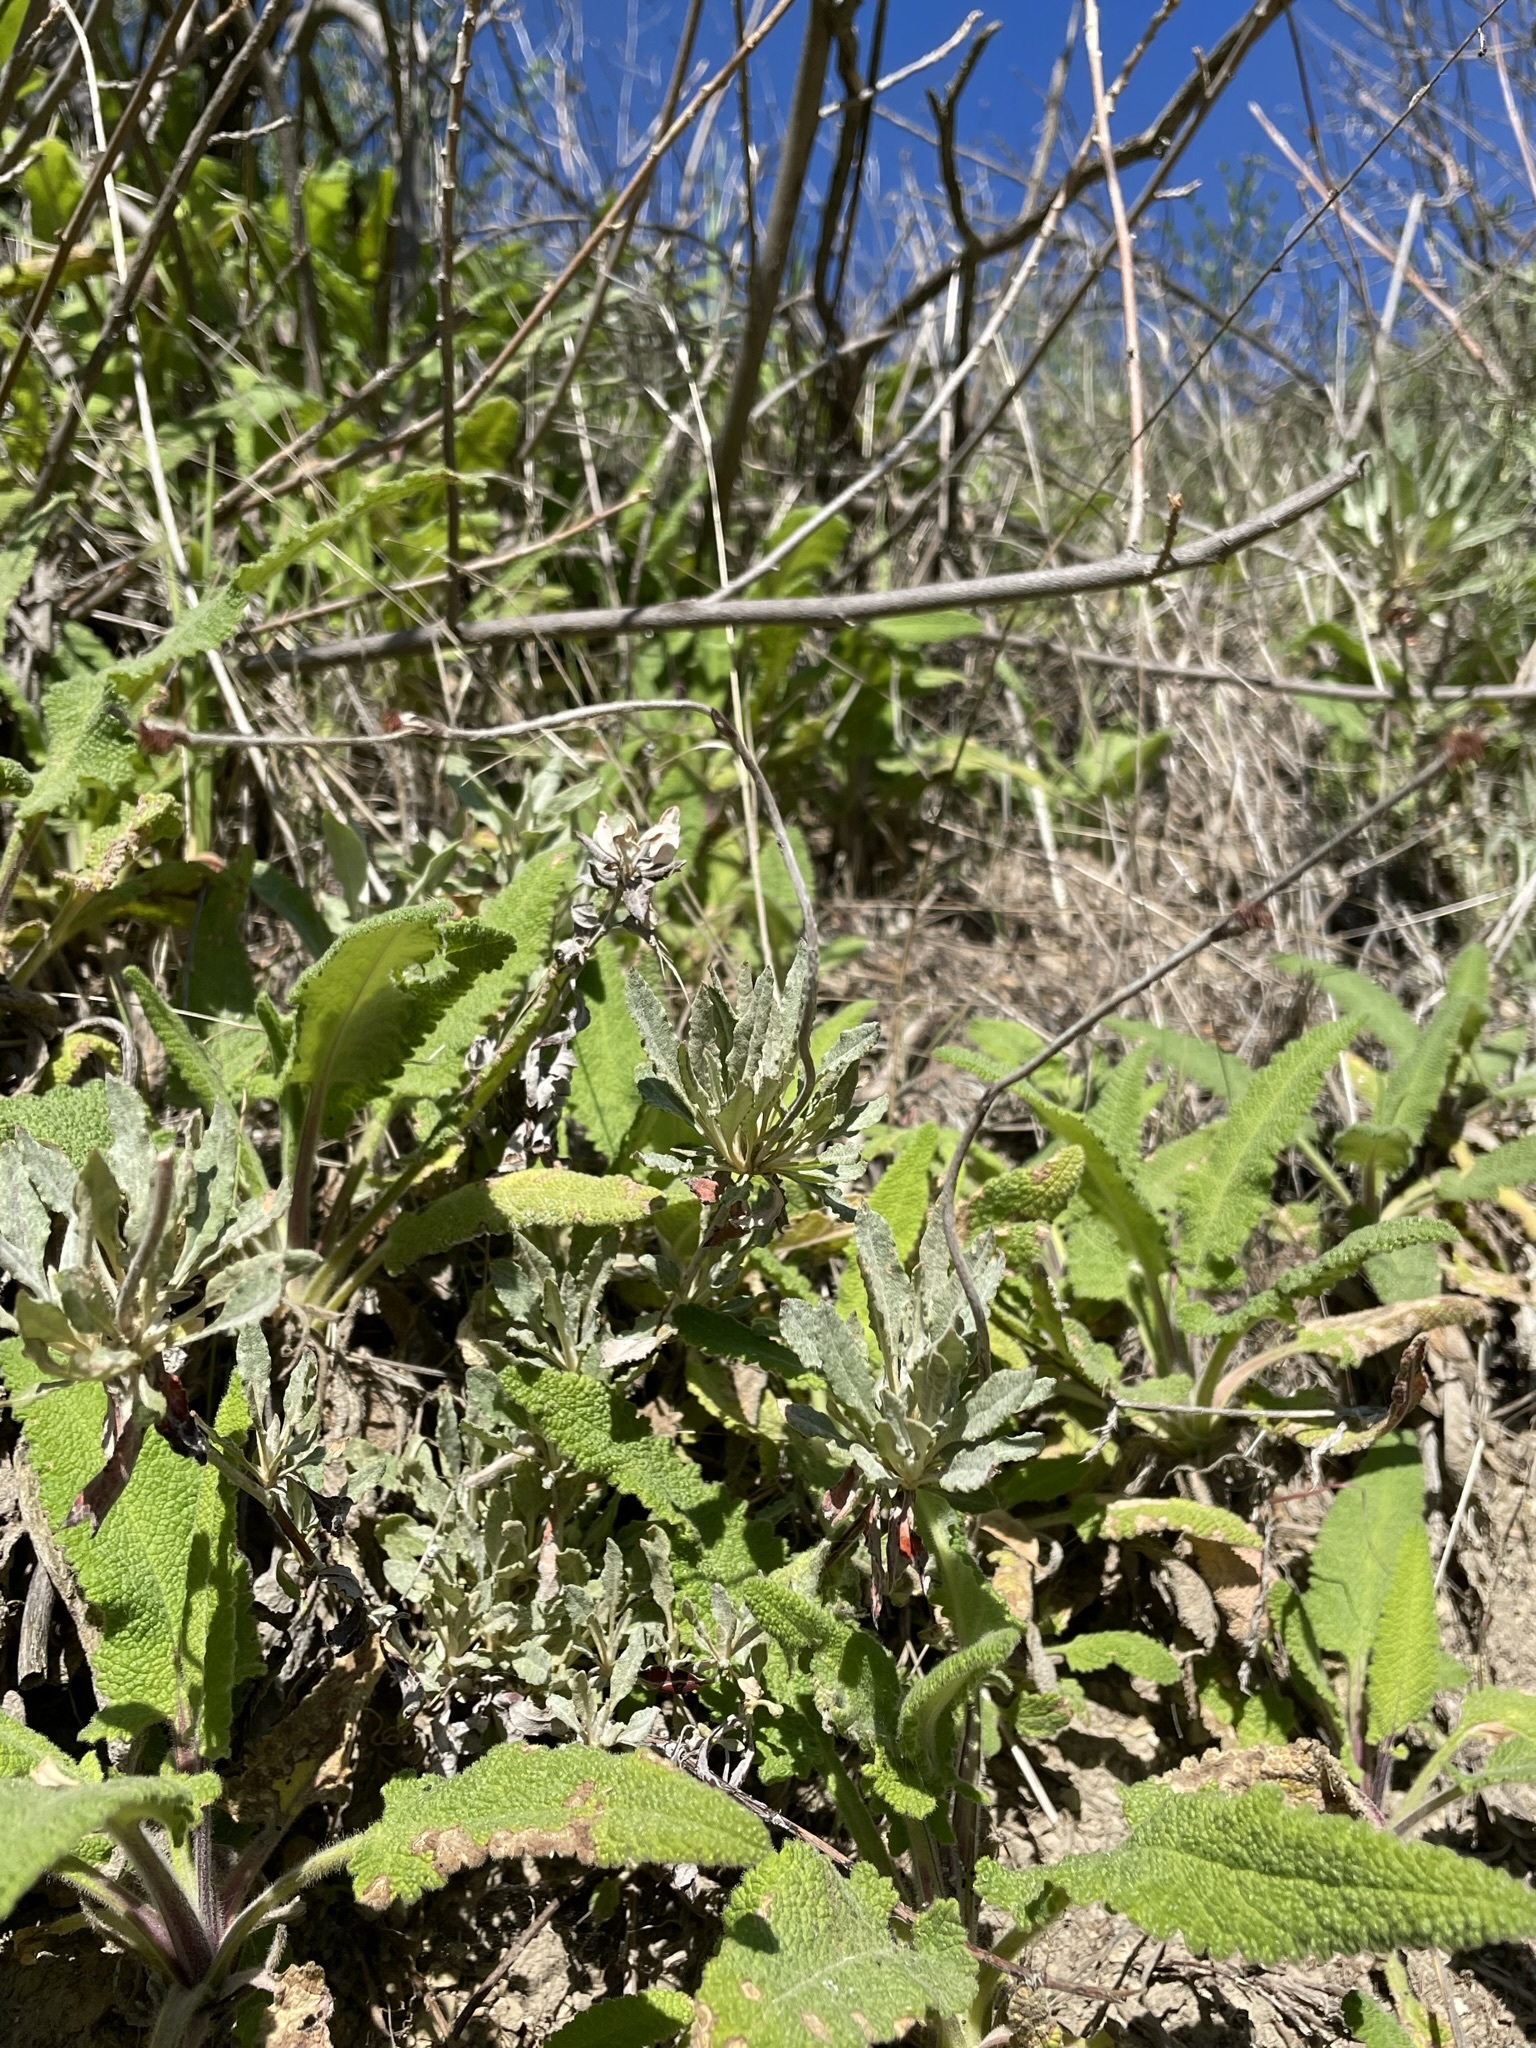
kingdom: Plantae
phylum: Tracheophyta
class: Magnoliopsida
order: Caryophyllales
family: Polygonaceae
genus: Eriogonum
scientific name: Eriogonum elongatum
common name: Long-stem wild buckwheat
